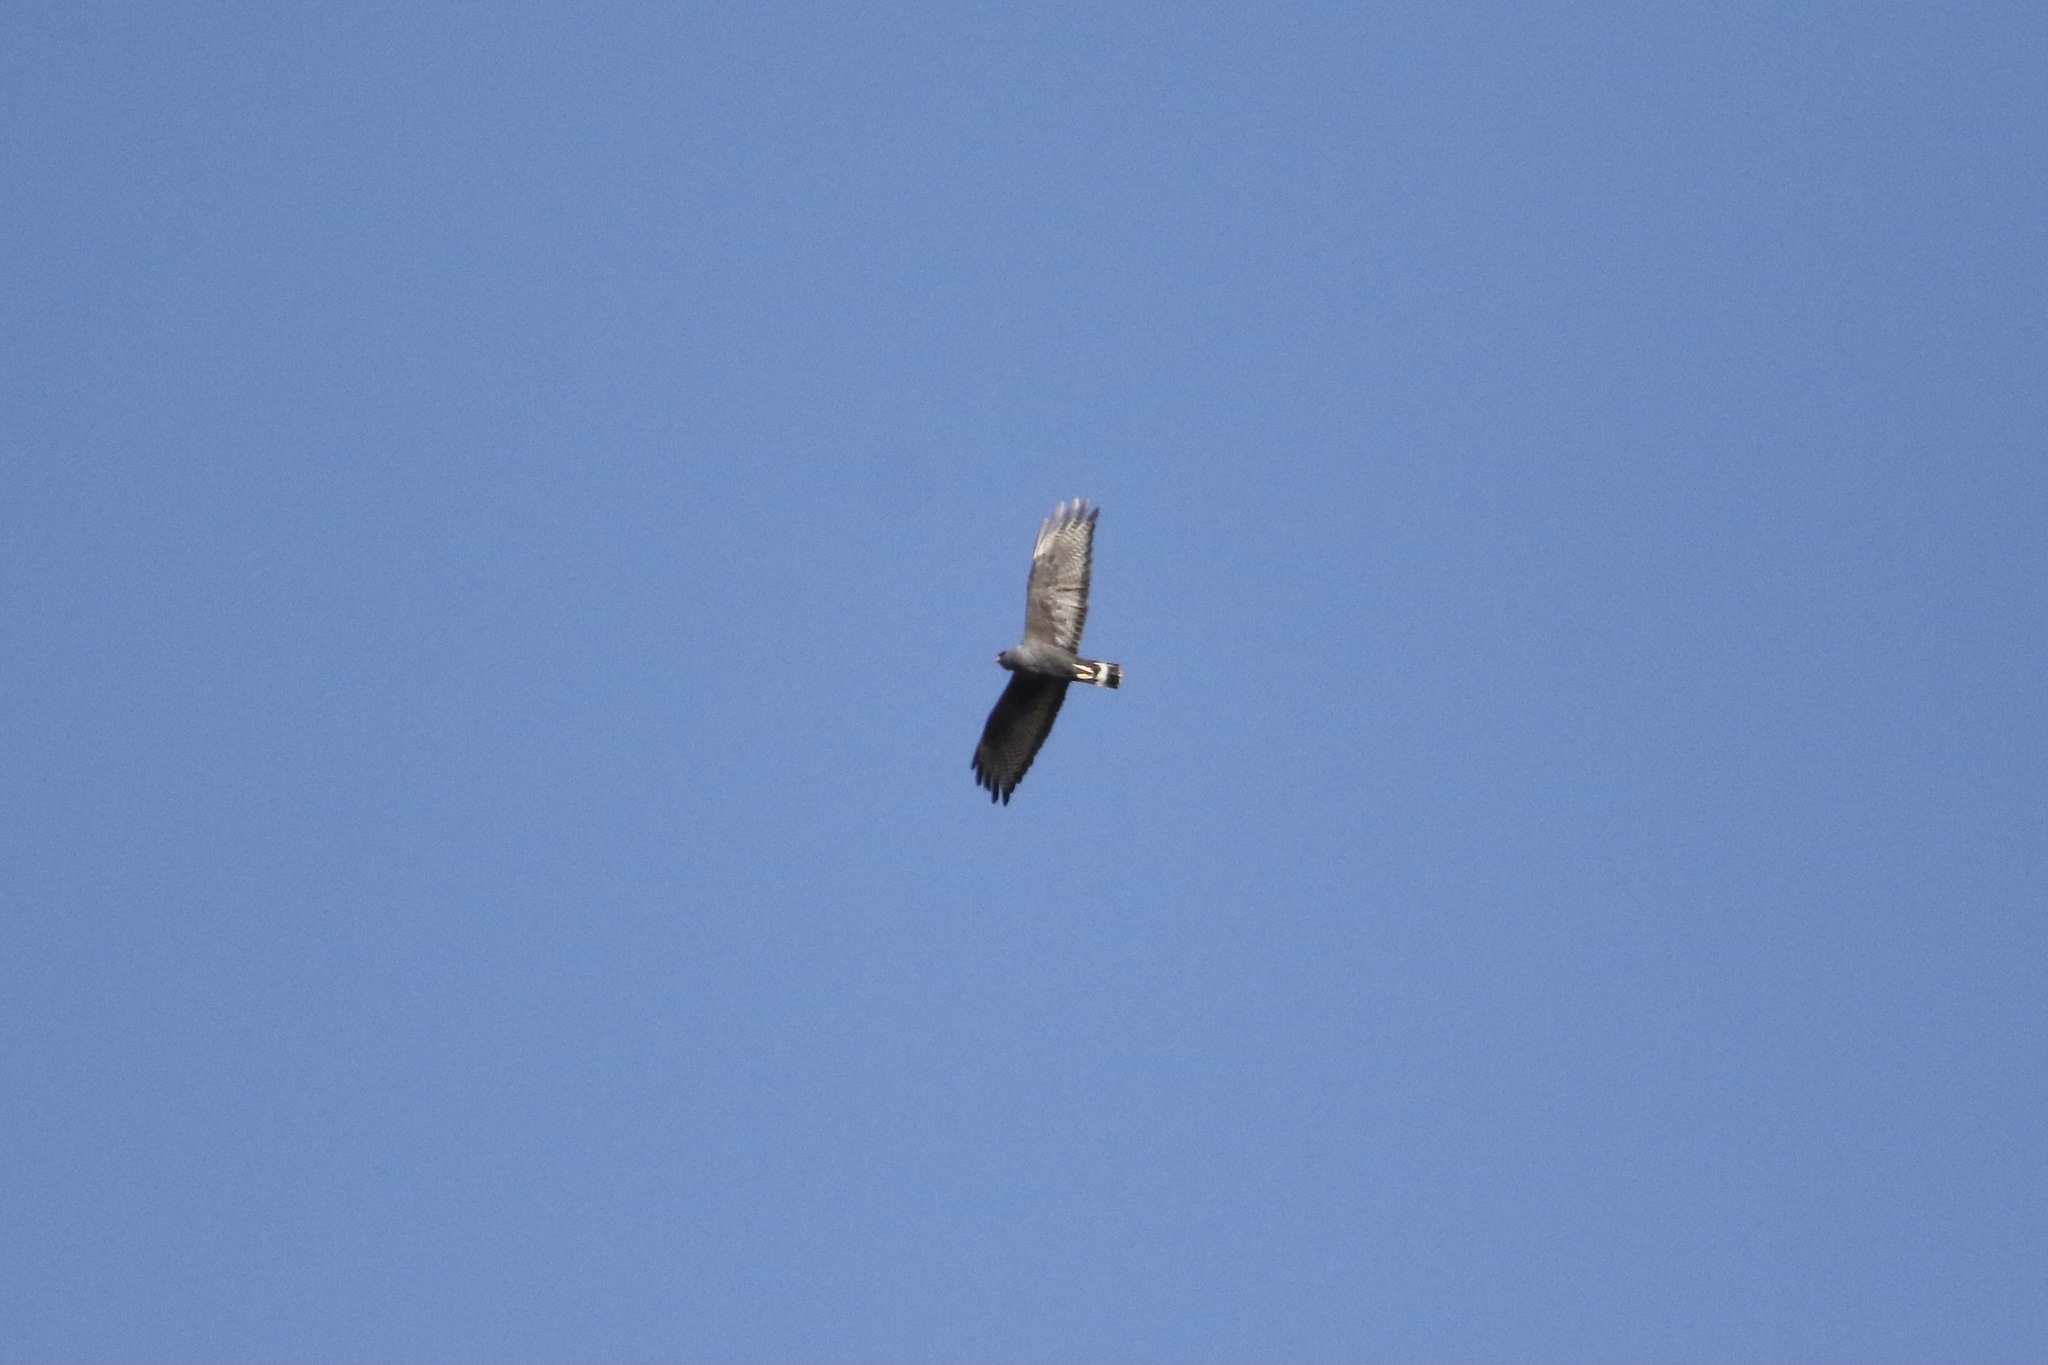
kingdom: Animalia
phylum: Chordata
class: Aves
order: Accipitriformes
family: Accipitridae
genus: Buteo
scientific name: Buteo albonotatus
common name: Zone-tailed hawk
